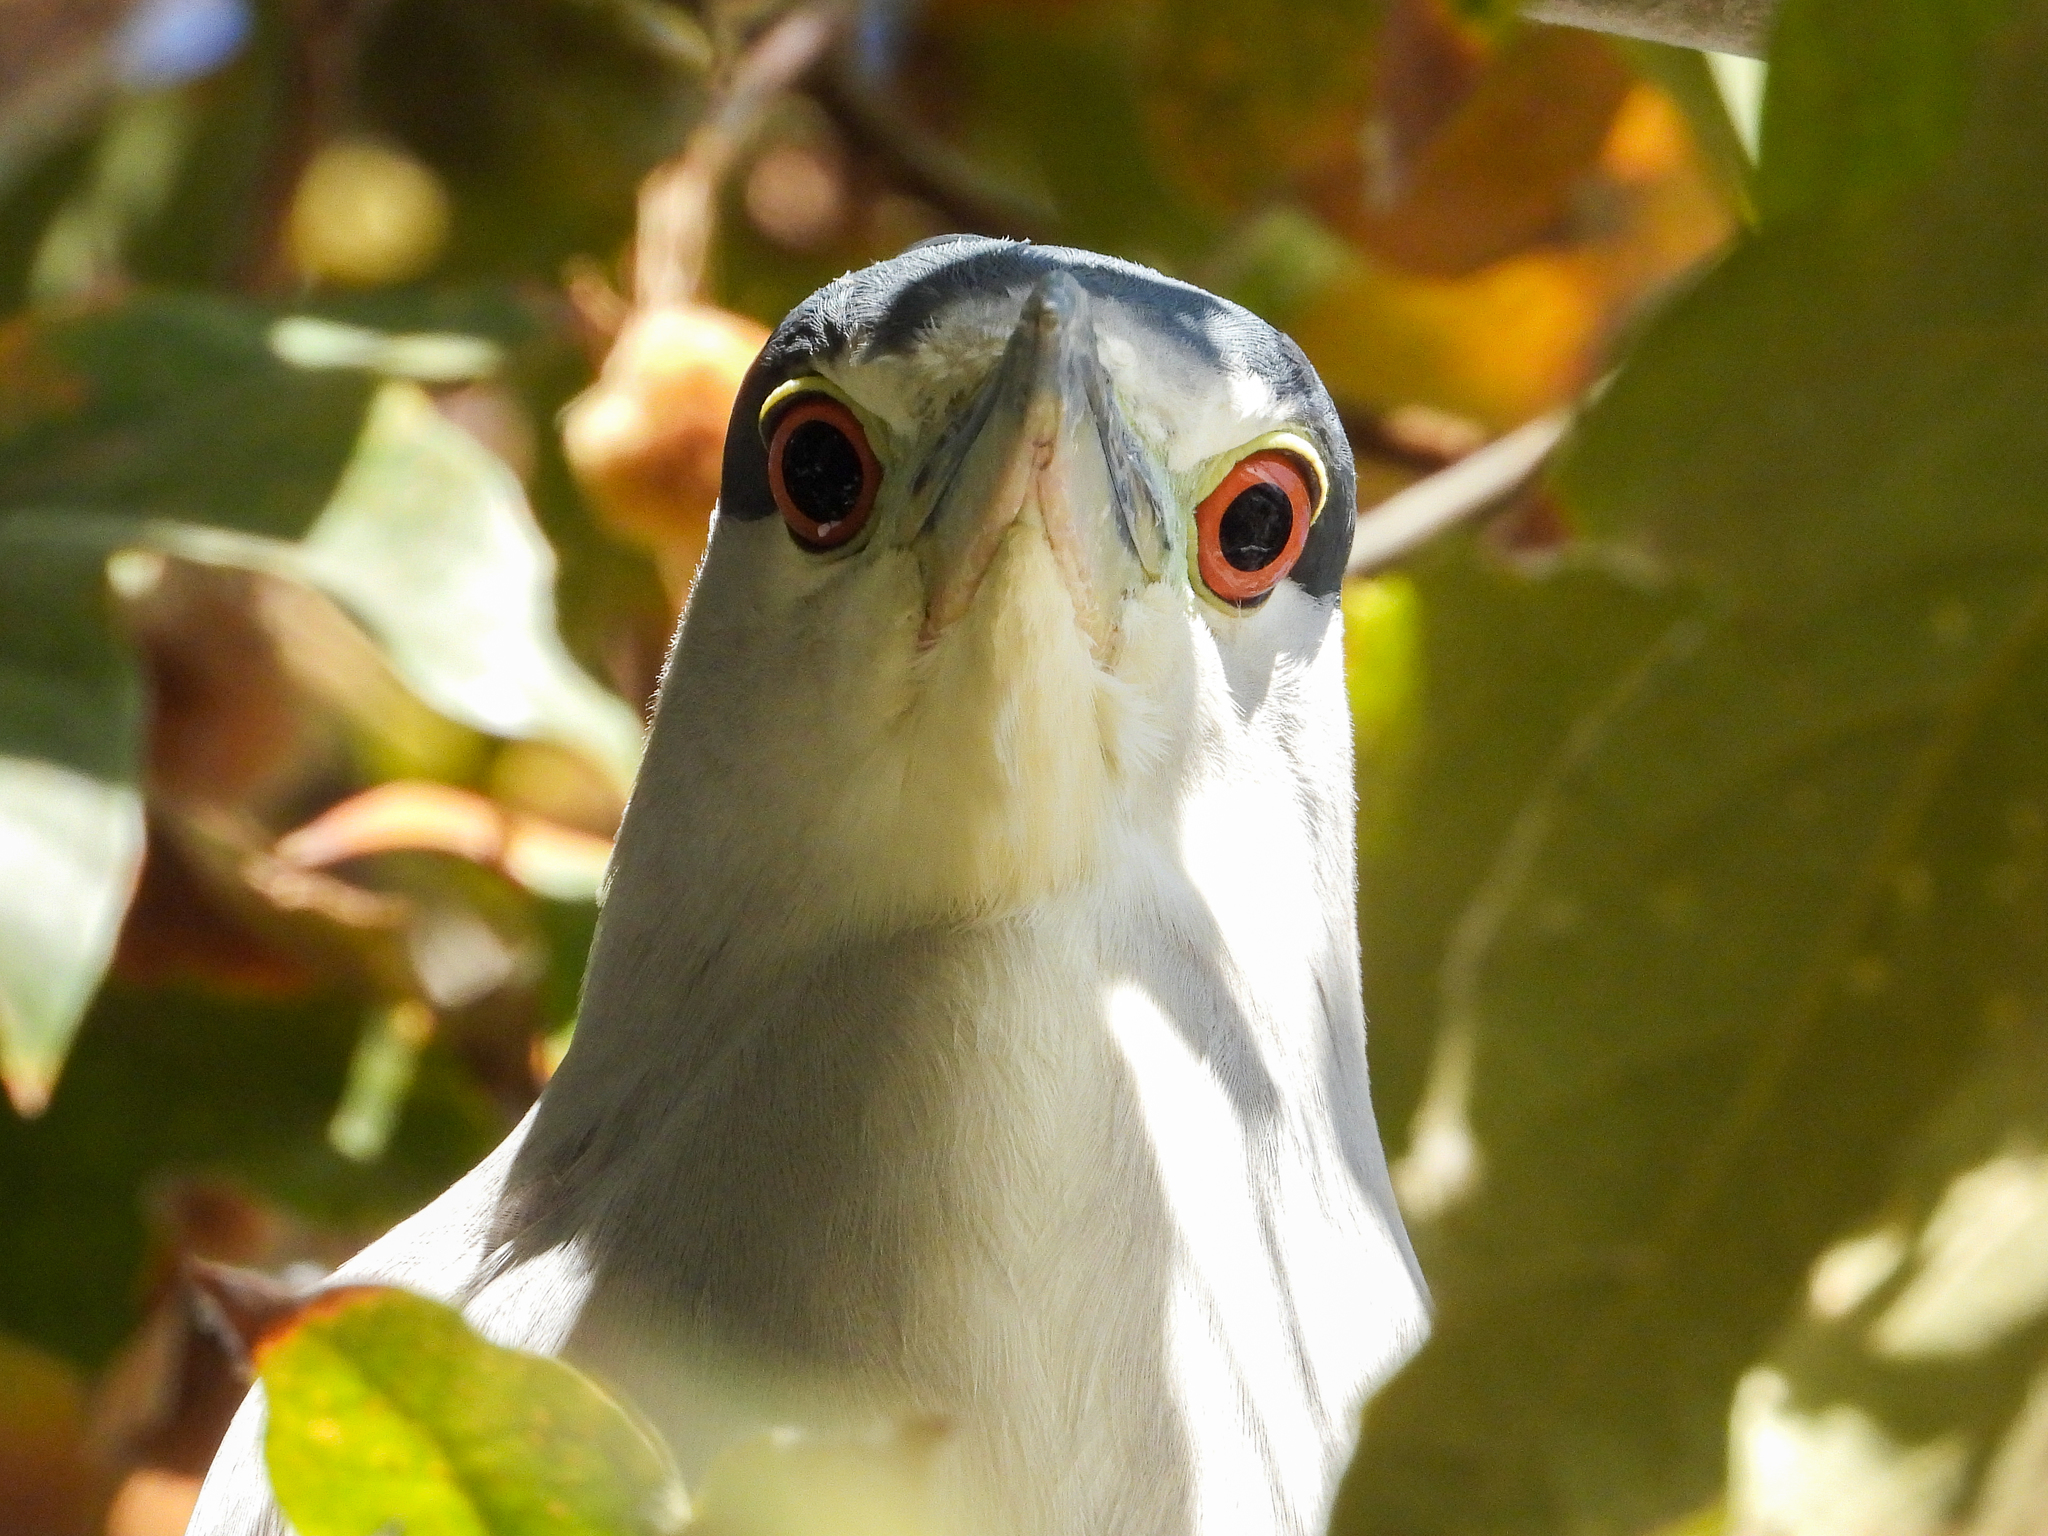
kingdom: Animalia
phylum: Chordata
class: Aves
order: Pelecaniformes
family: Ardeidae
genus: Nycticorax
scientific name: Nycticorax nycticorax
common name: Black-crowned night heron
